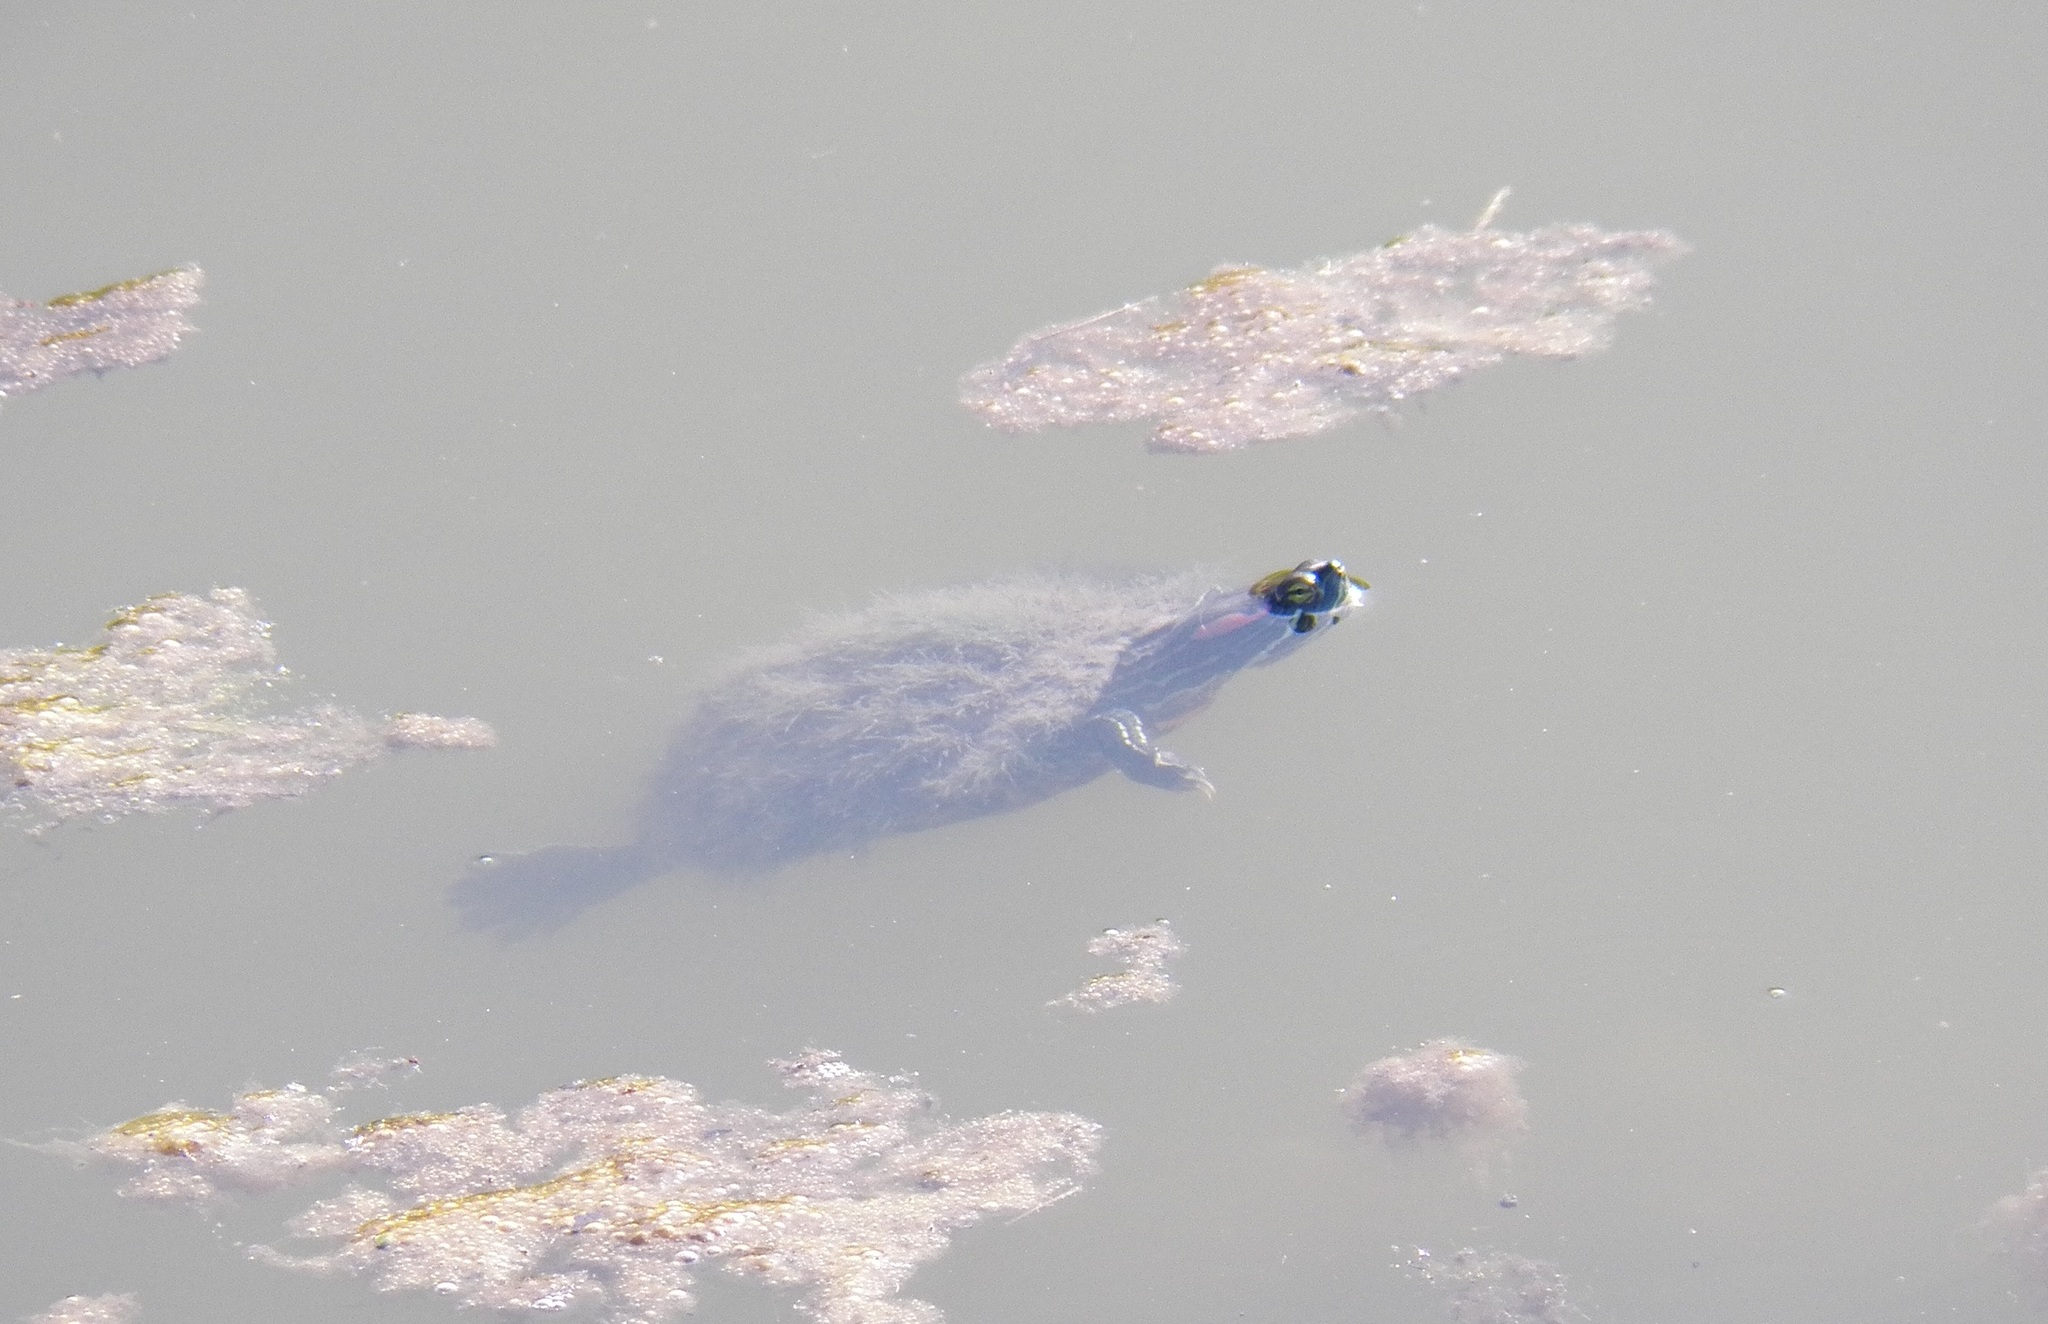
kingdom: Animalia
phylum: Chordata
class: Testudines
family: Emydidae
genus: Trachemys
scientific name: Trachemys scripta
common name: Slider
